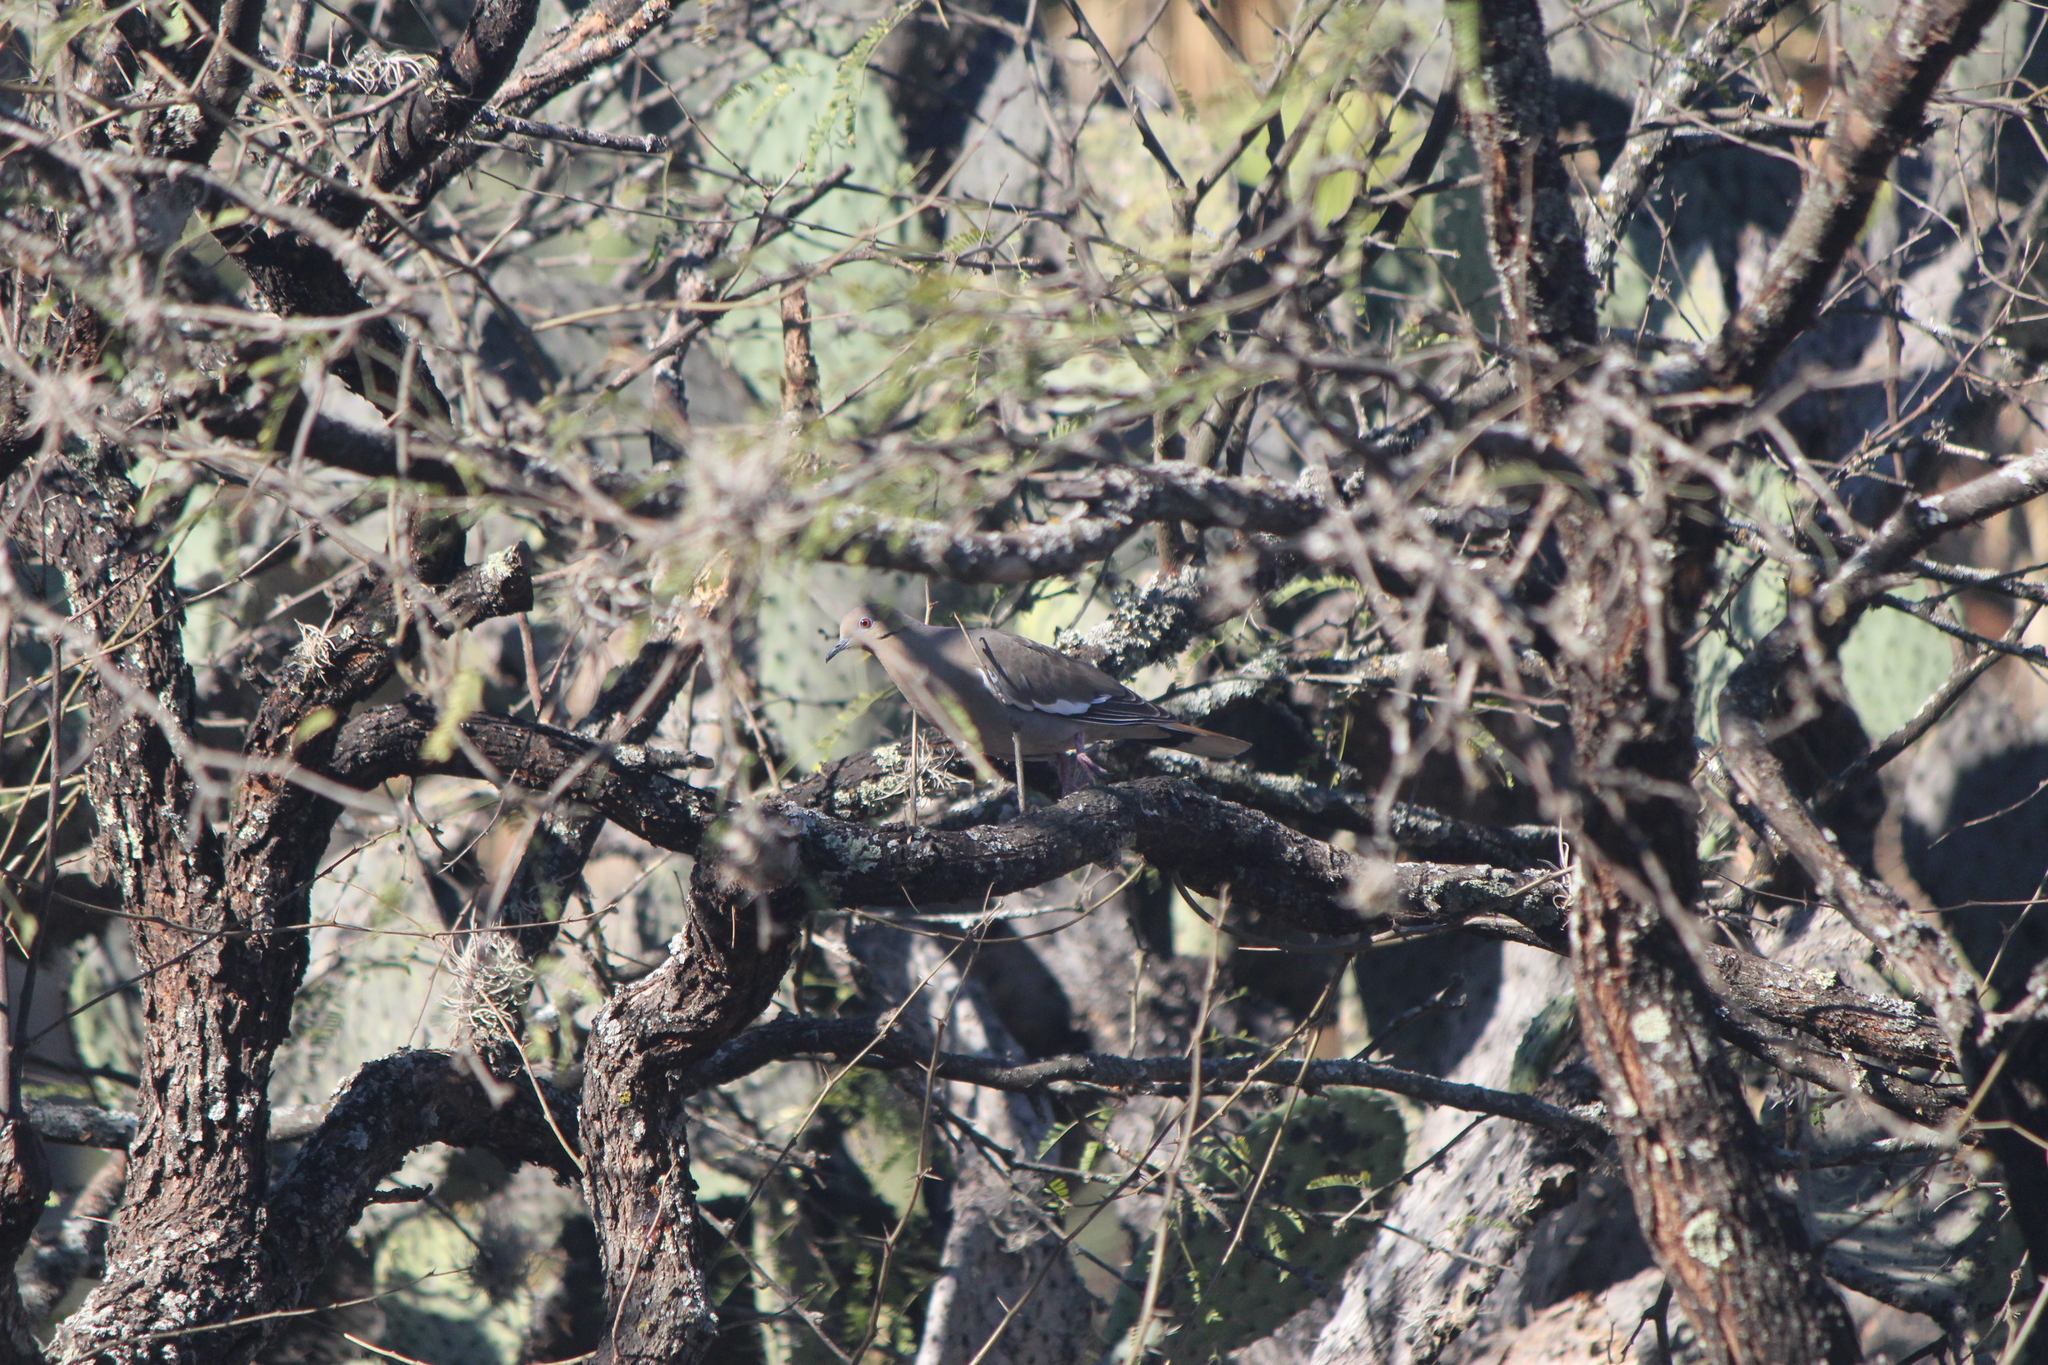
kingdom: Animalia
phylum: Chordata
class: Aves
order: Columbiformes
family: Columbidae
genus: Zenaida
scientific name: Zenaida asiatica
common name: White-winged dove
